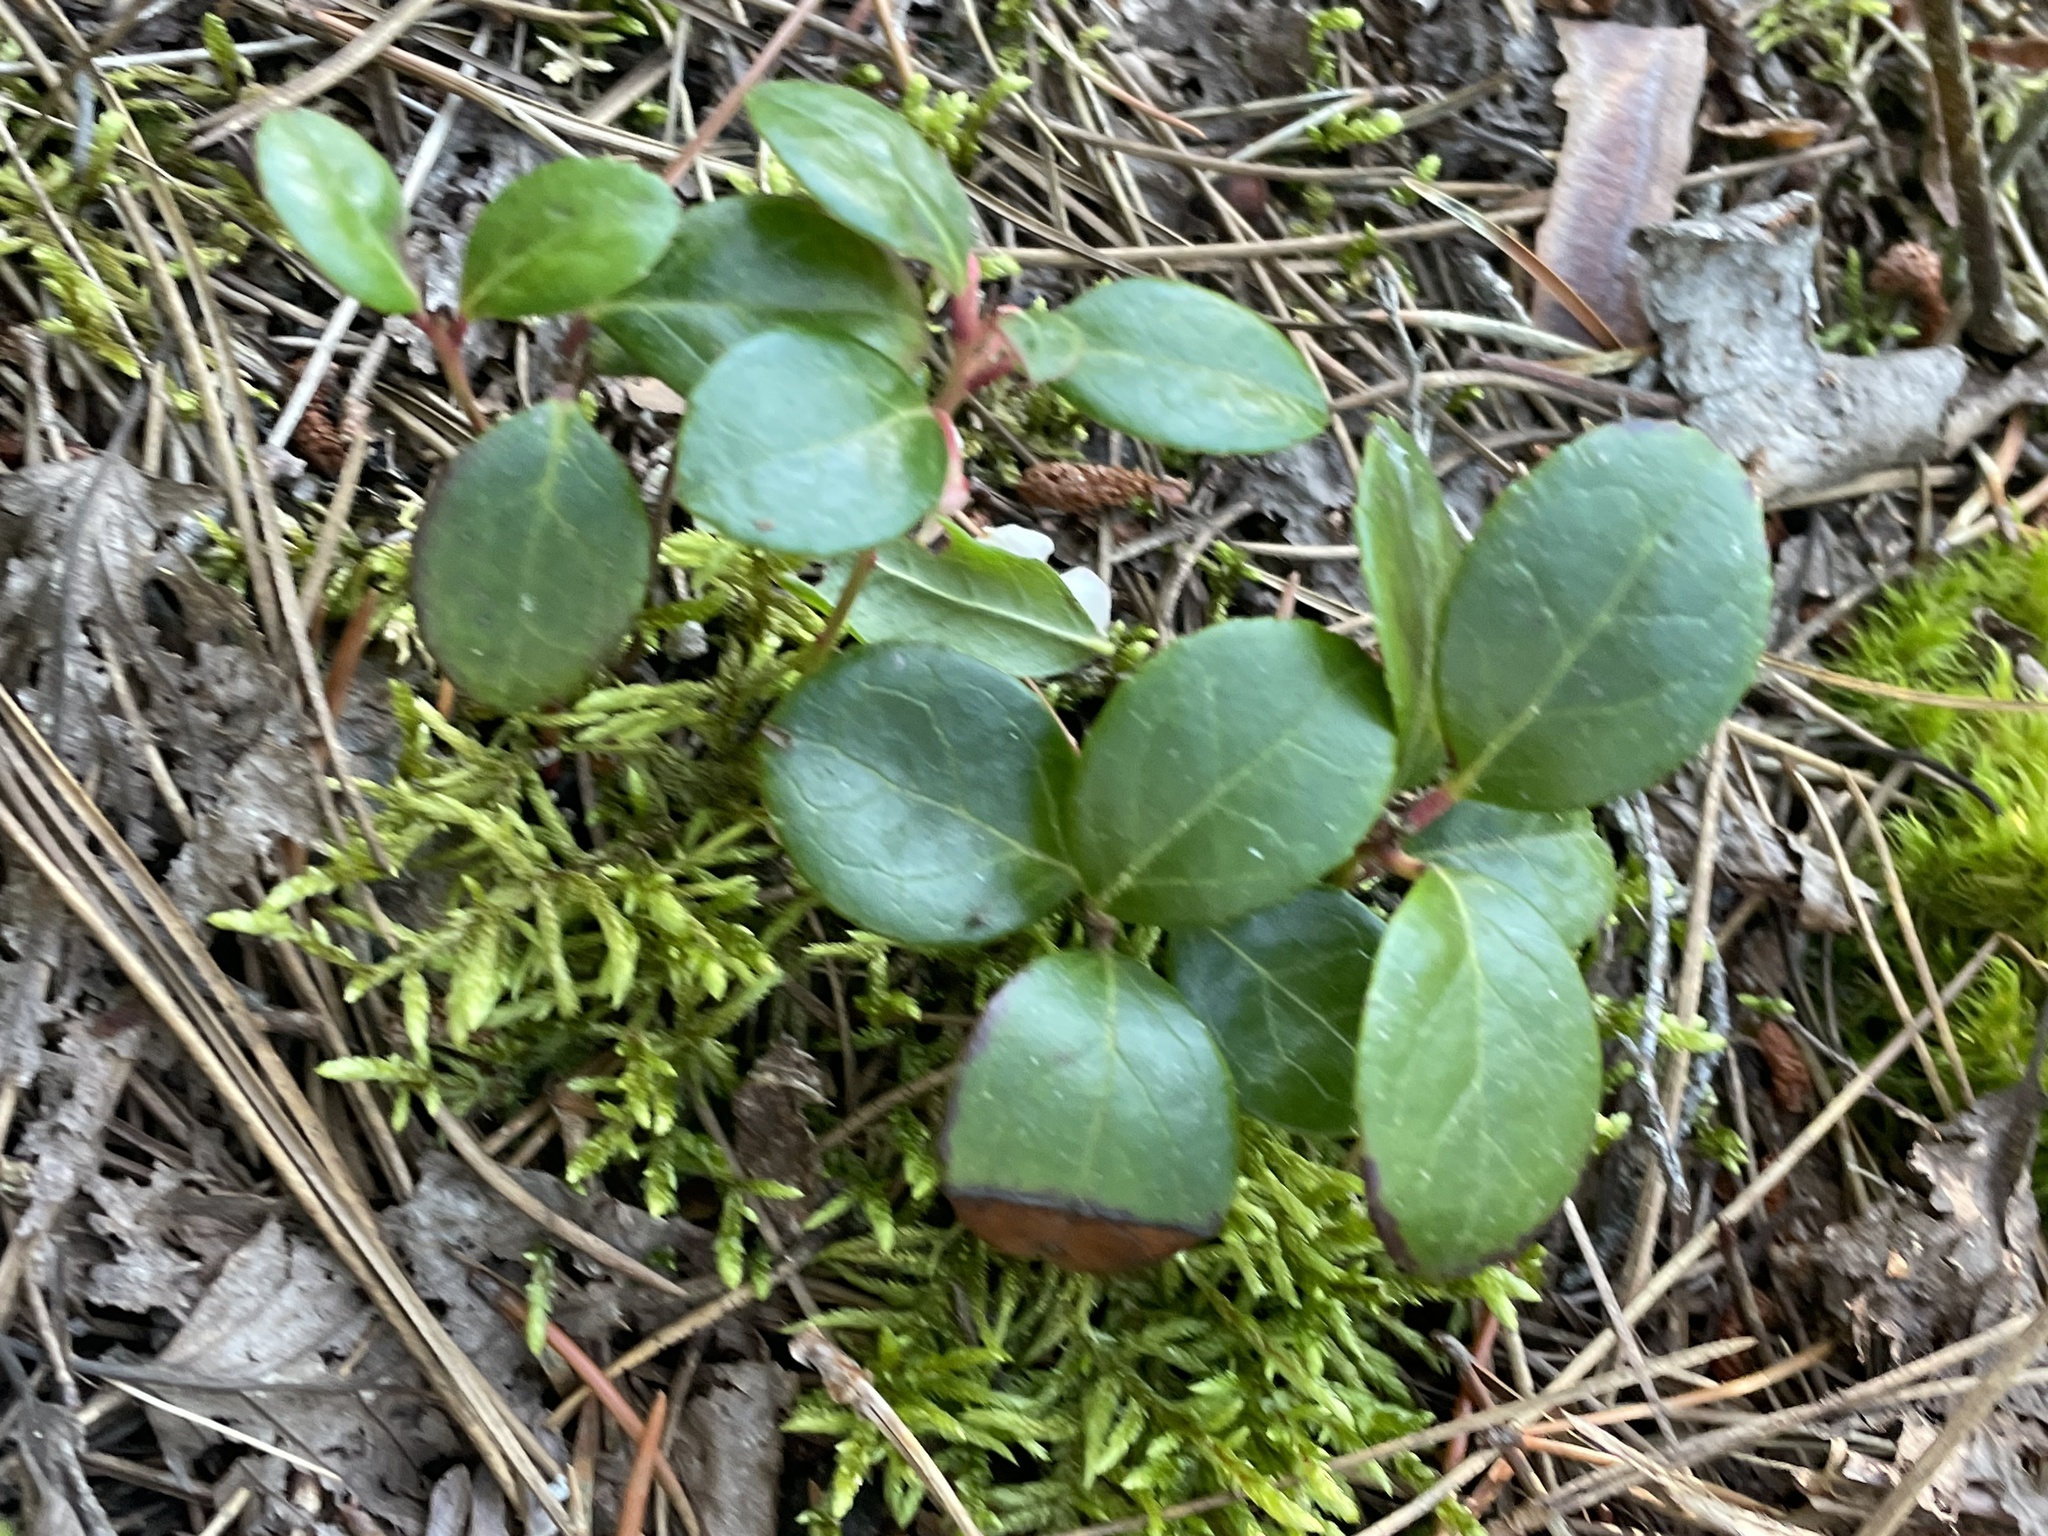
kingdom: Plantae
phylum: Tracheophyta
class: Magnoliopsida
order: Ericales
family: Ericaceae
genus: Gaultheria
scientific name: Gaultheria procumbens
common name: Checkerberry
